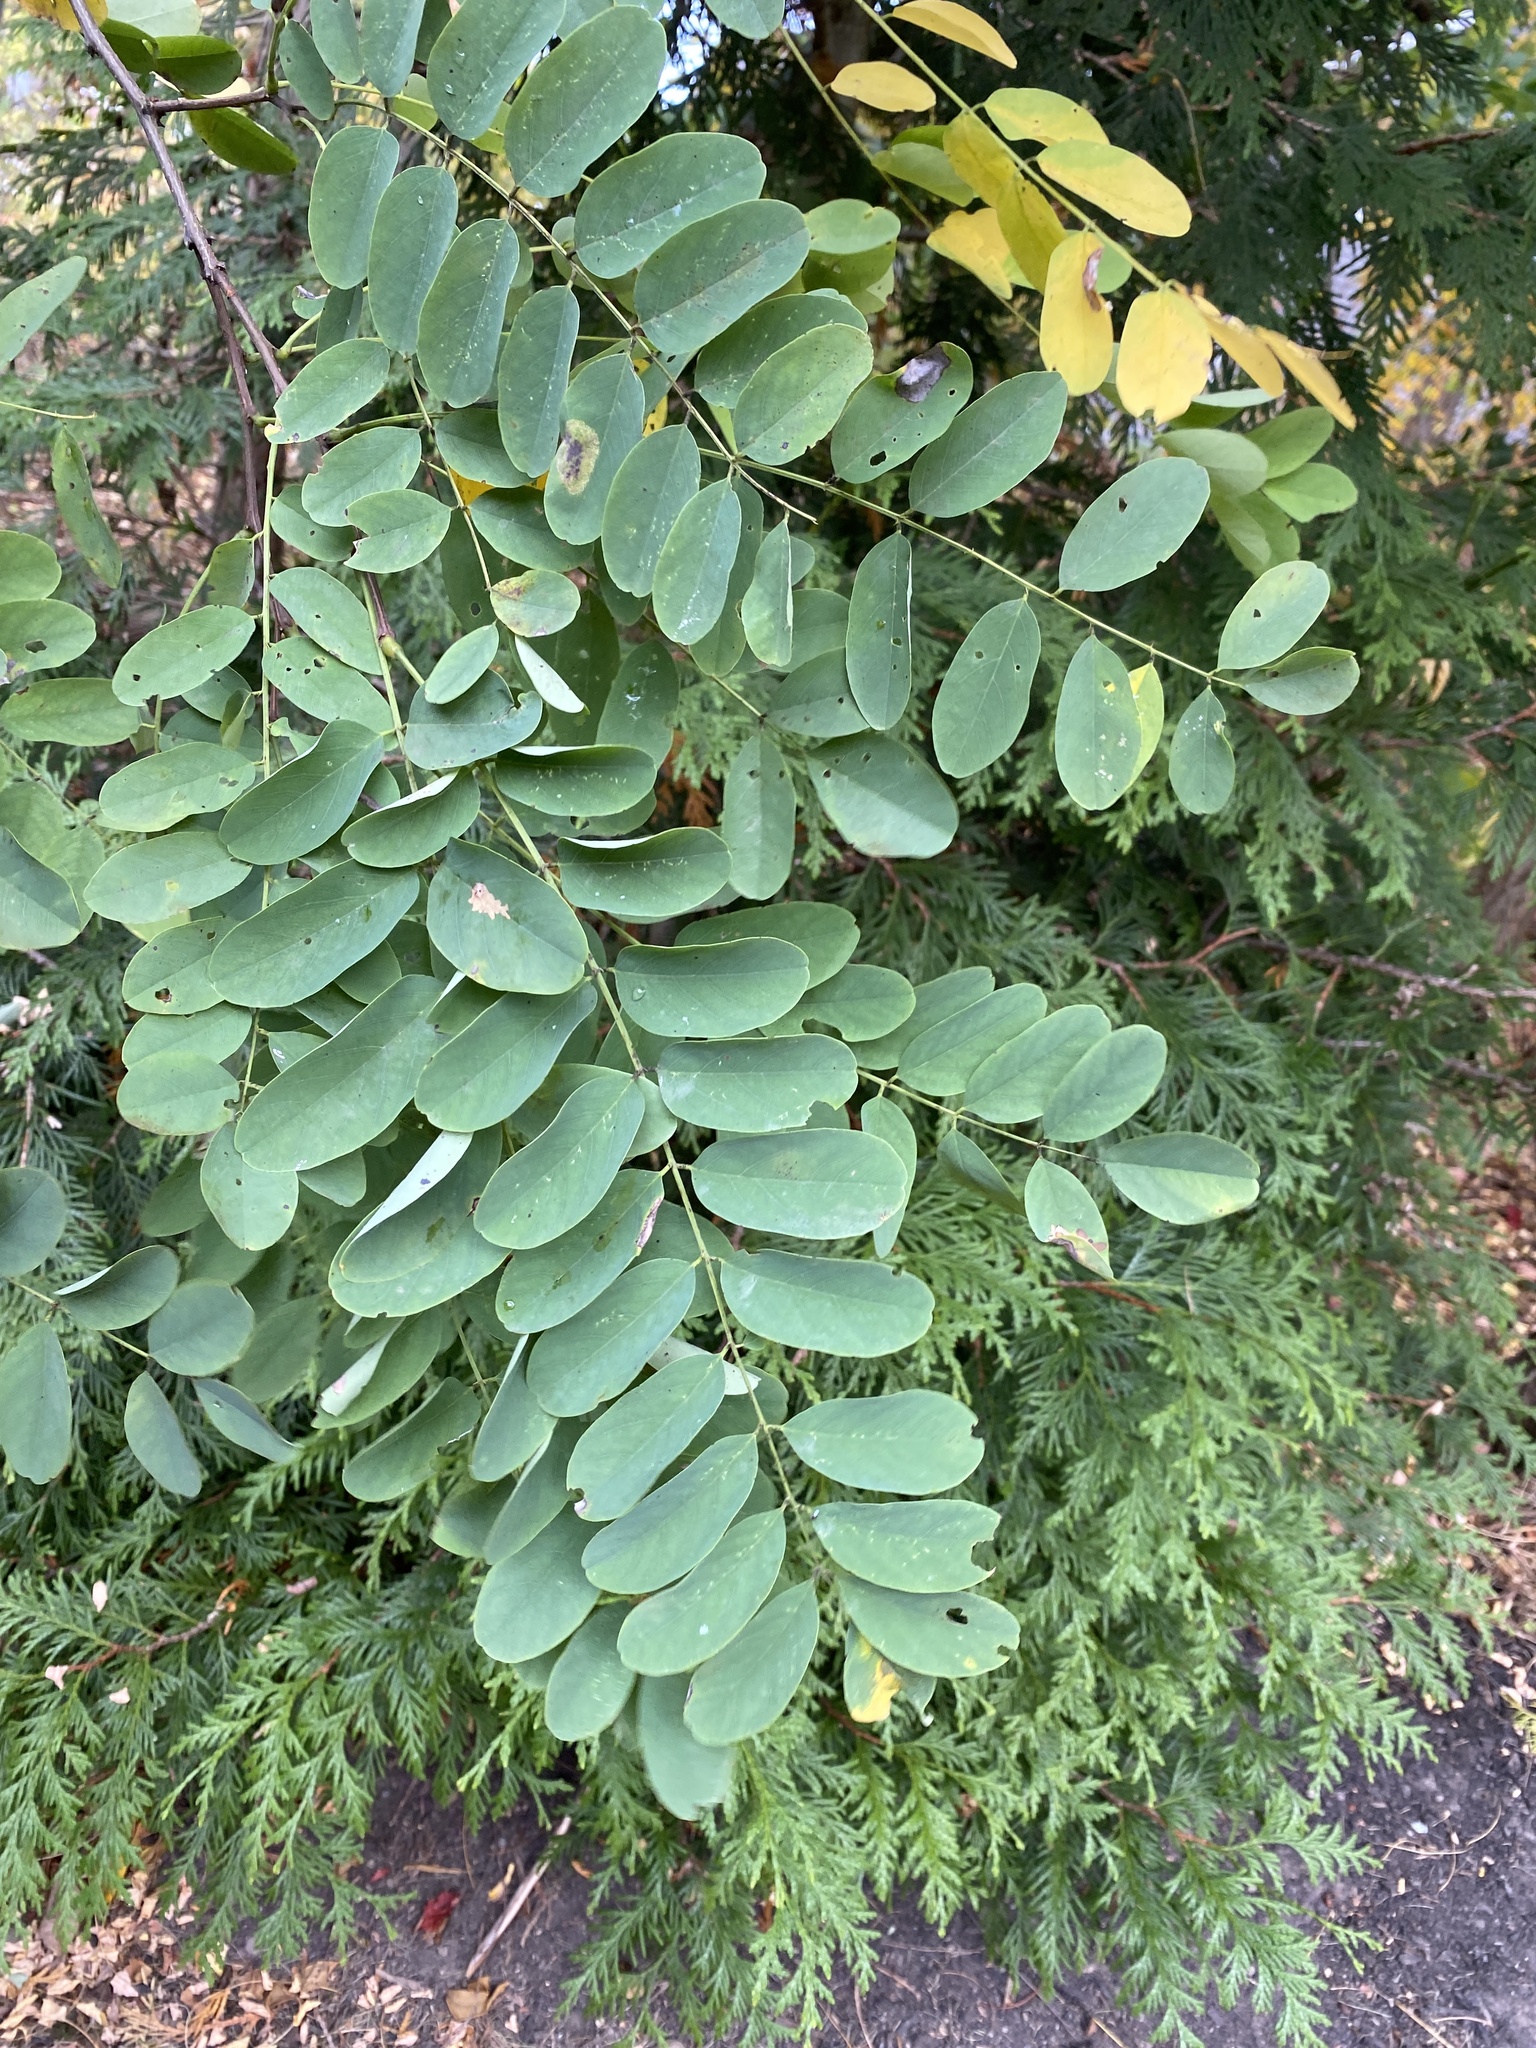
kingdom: Plantae
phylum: Tracheophyta
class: Magnoliopsida
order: Fabales
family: Fabaceae
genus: Robinia
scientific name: Robinia pseudoacacia
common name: Black locust
